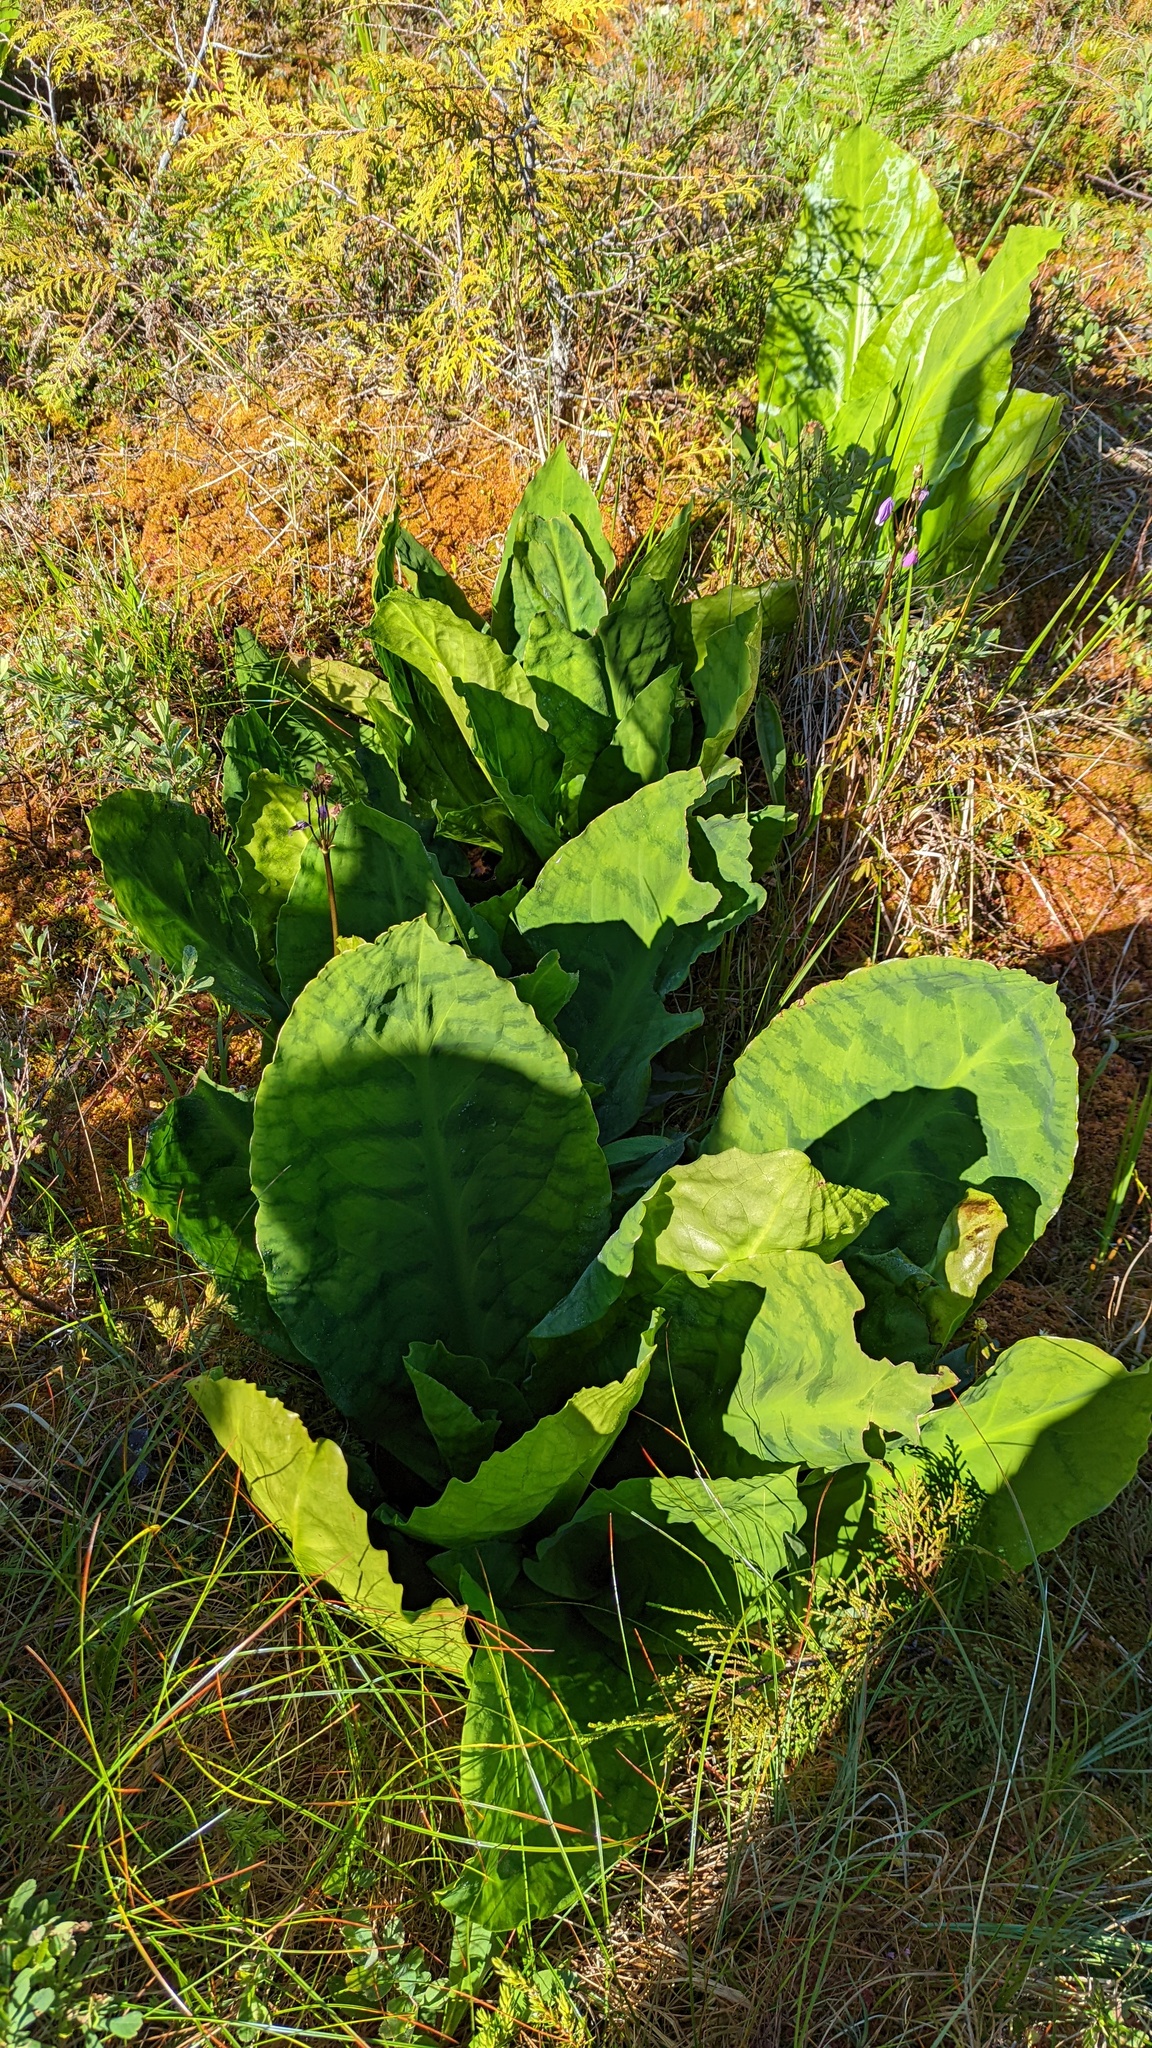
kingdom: Plantae
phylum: Tracheophyta
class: Liliopsida
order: Alismatales
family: Araceae
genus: Lysichiton
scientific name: Lysichiton americanus
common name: American skunk cabbage
